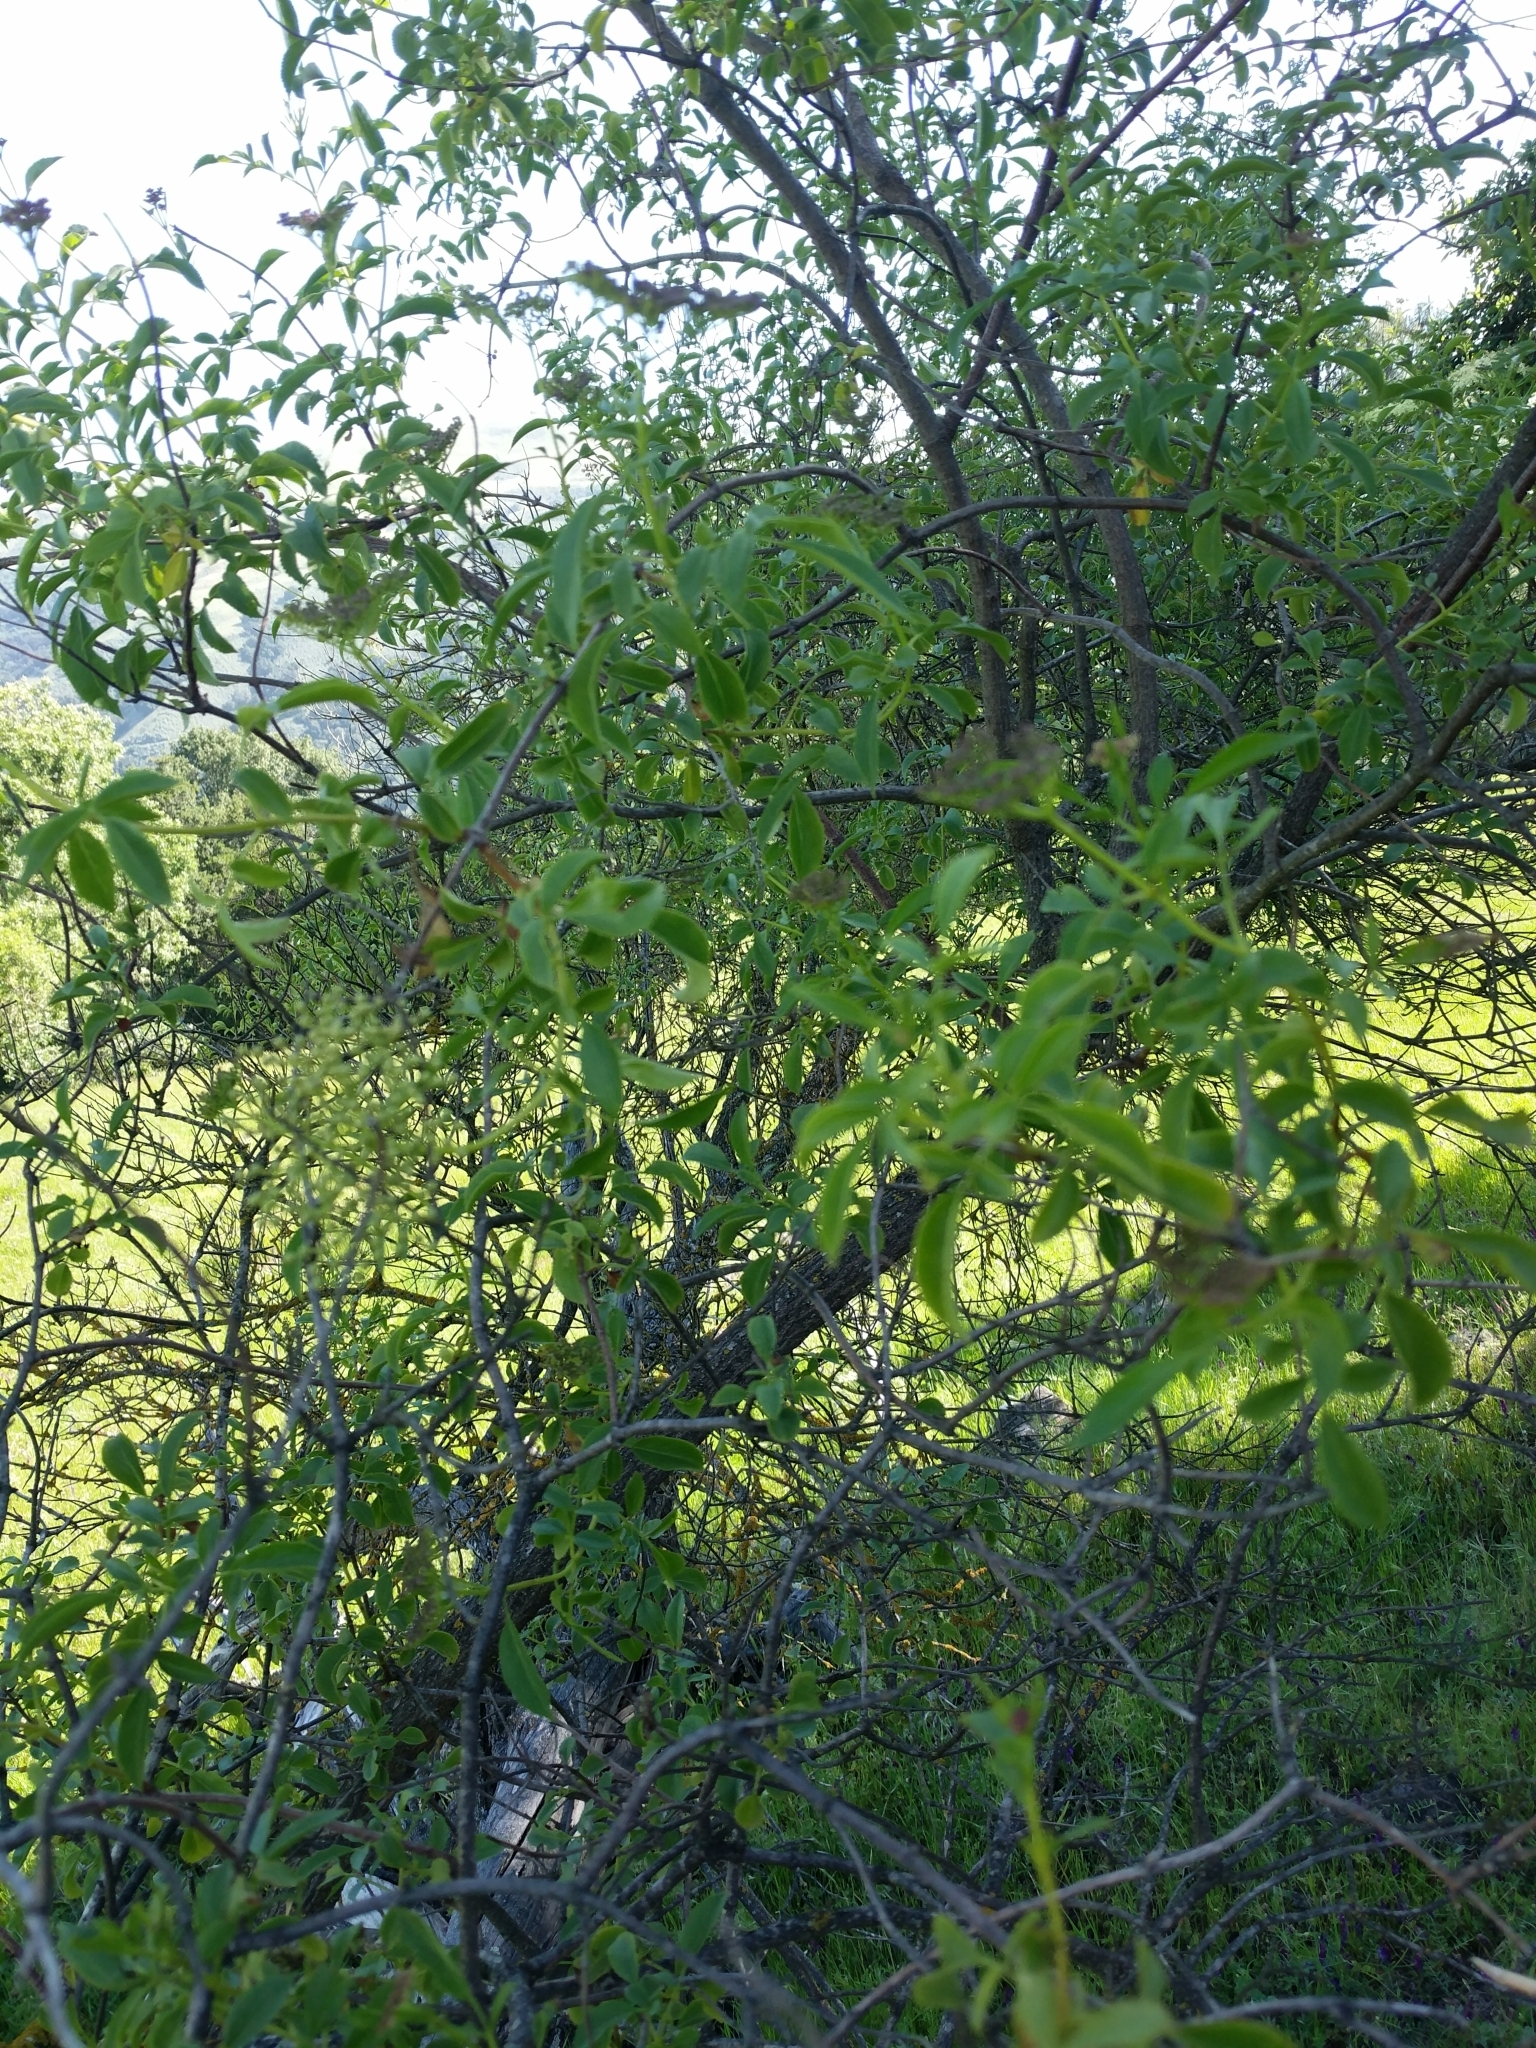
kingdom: Plantae
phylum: Tracheophyta
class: Magnoliopsida
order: Dipsacales
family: Viburnaceae
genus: Sambucus
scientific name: Sambucus cerulea
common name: Blue elder
